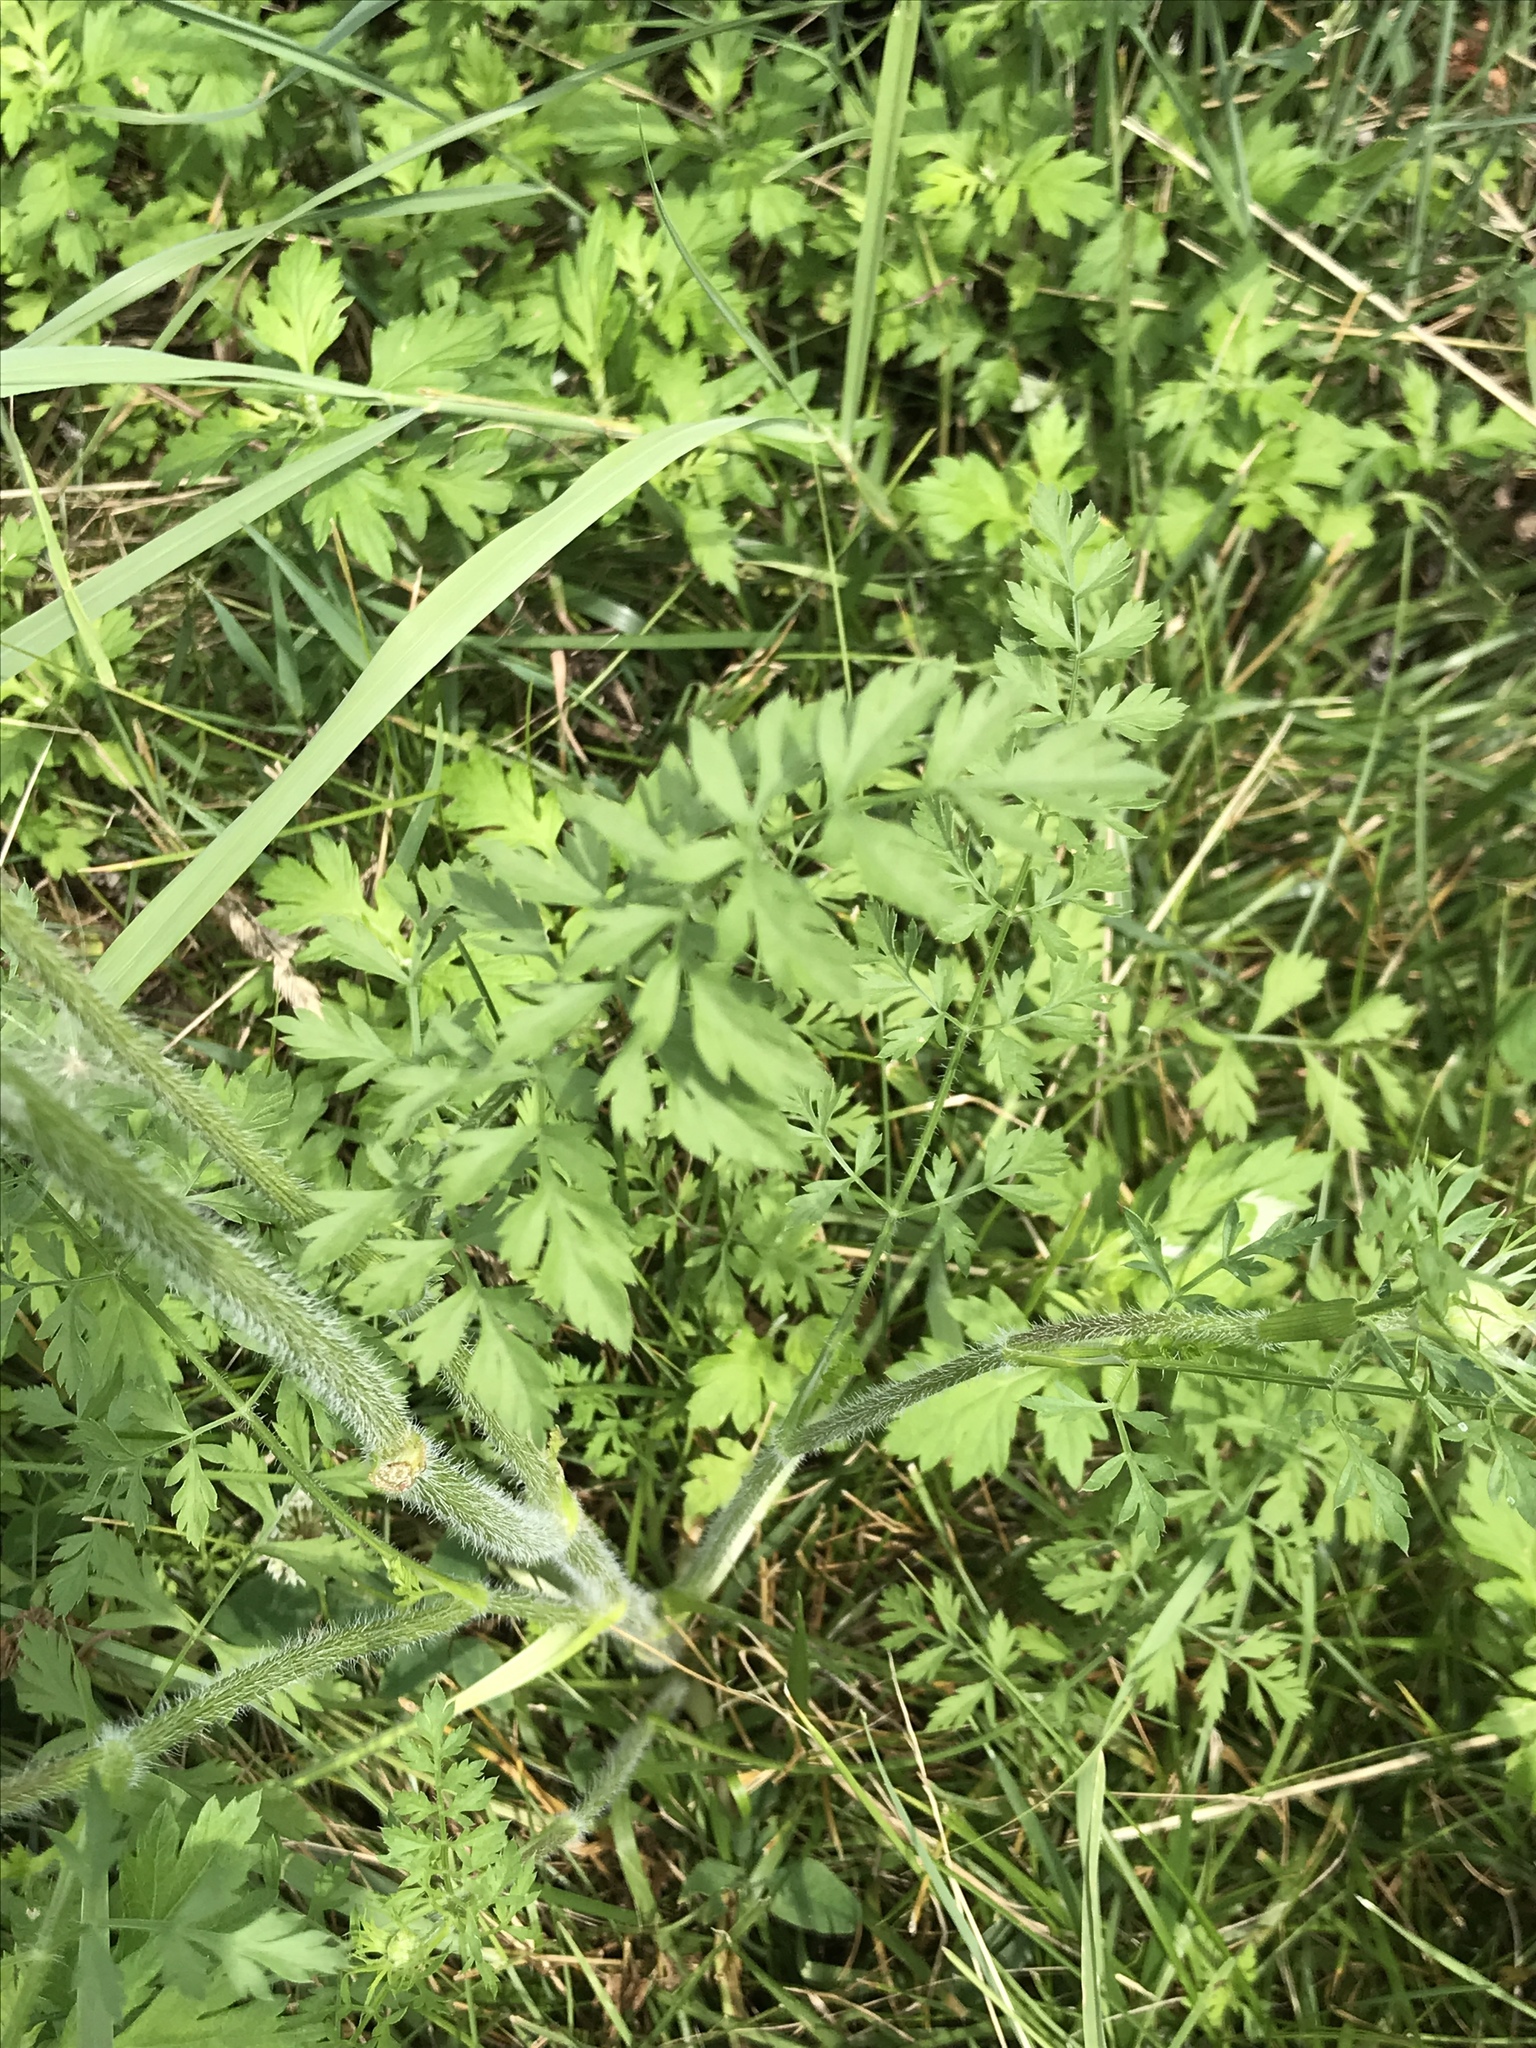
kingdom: Plantae
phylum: Tracheophyta
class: Magnoliopsida
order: Apiales
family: Apiaceae
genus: Daucus
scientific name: Daucus carota
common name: Wild carrot
